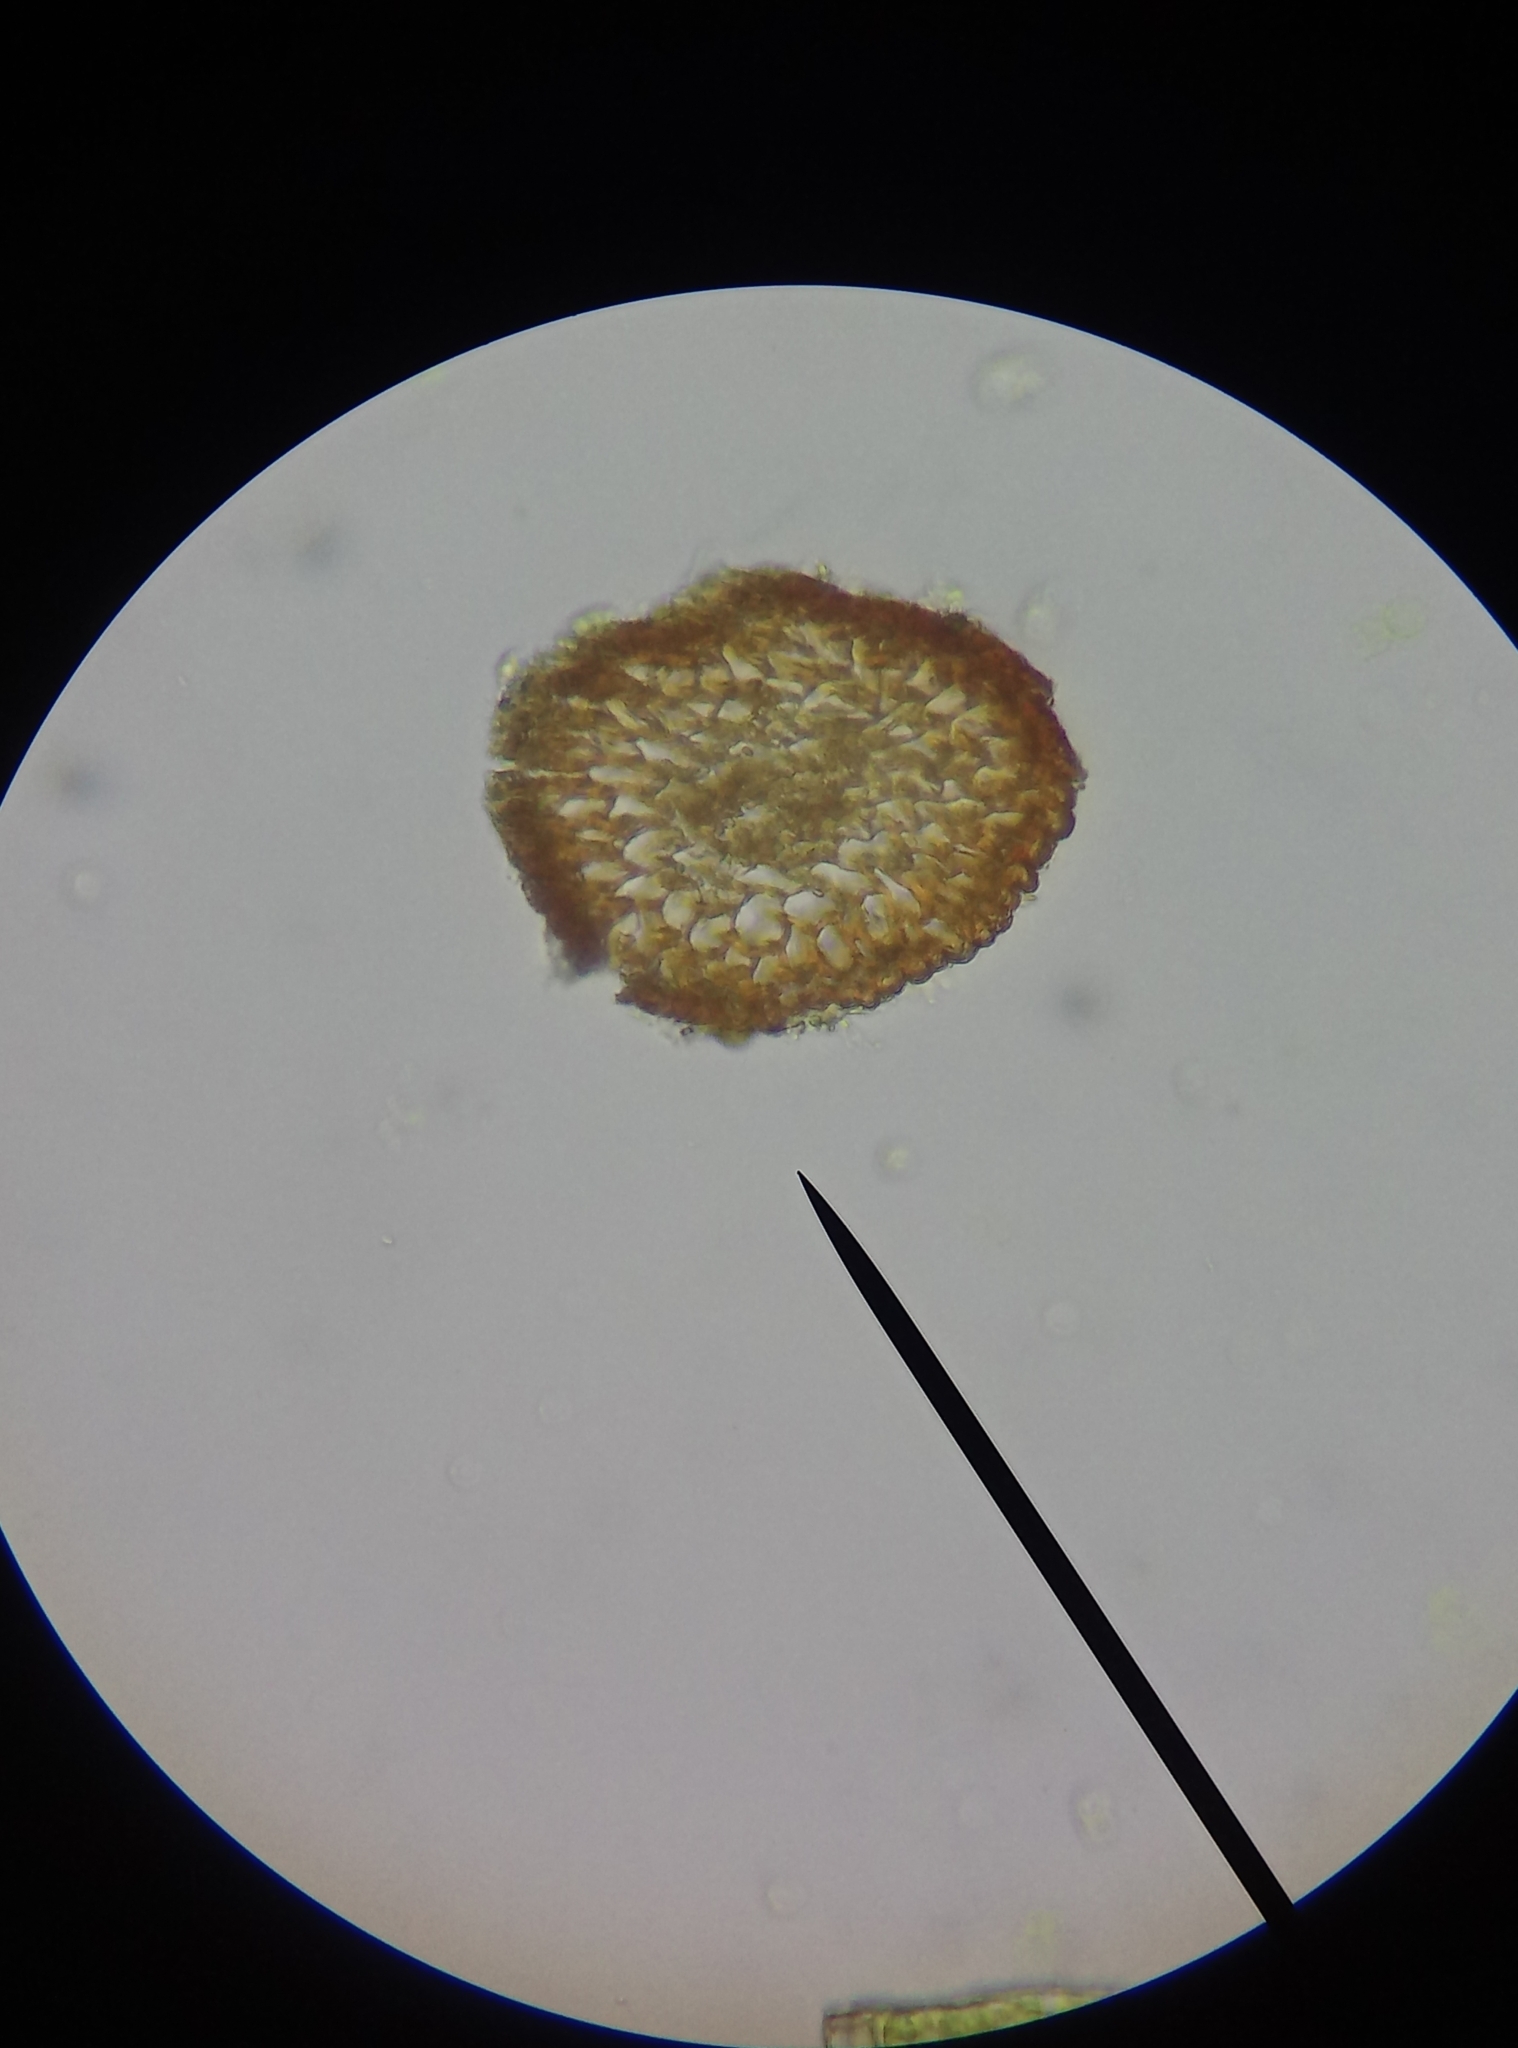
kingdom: Plantae
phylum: Bryophyta
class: Bryopsida
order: Pottiales
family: Pottiaceae
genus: Tortula
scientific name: Tortula muralis
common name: Wall screw-moss
